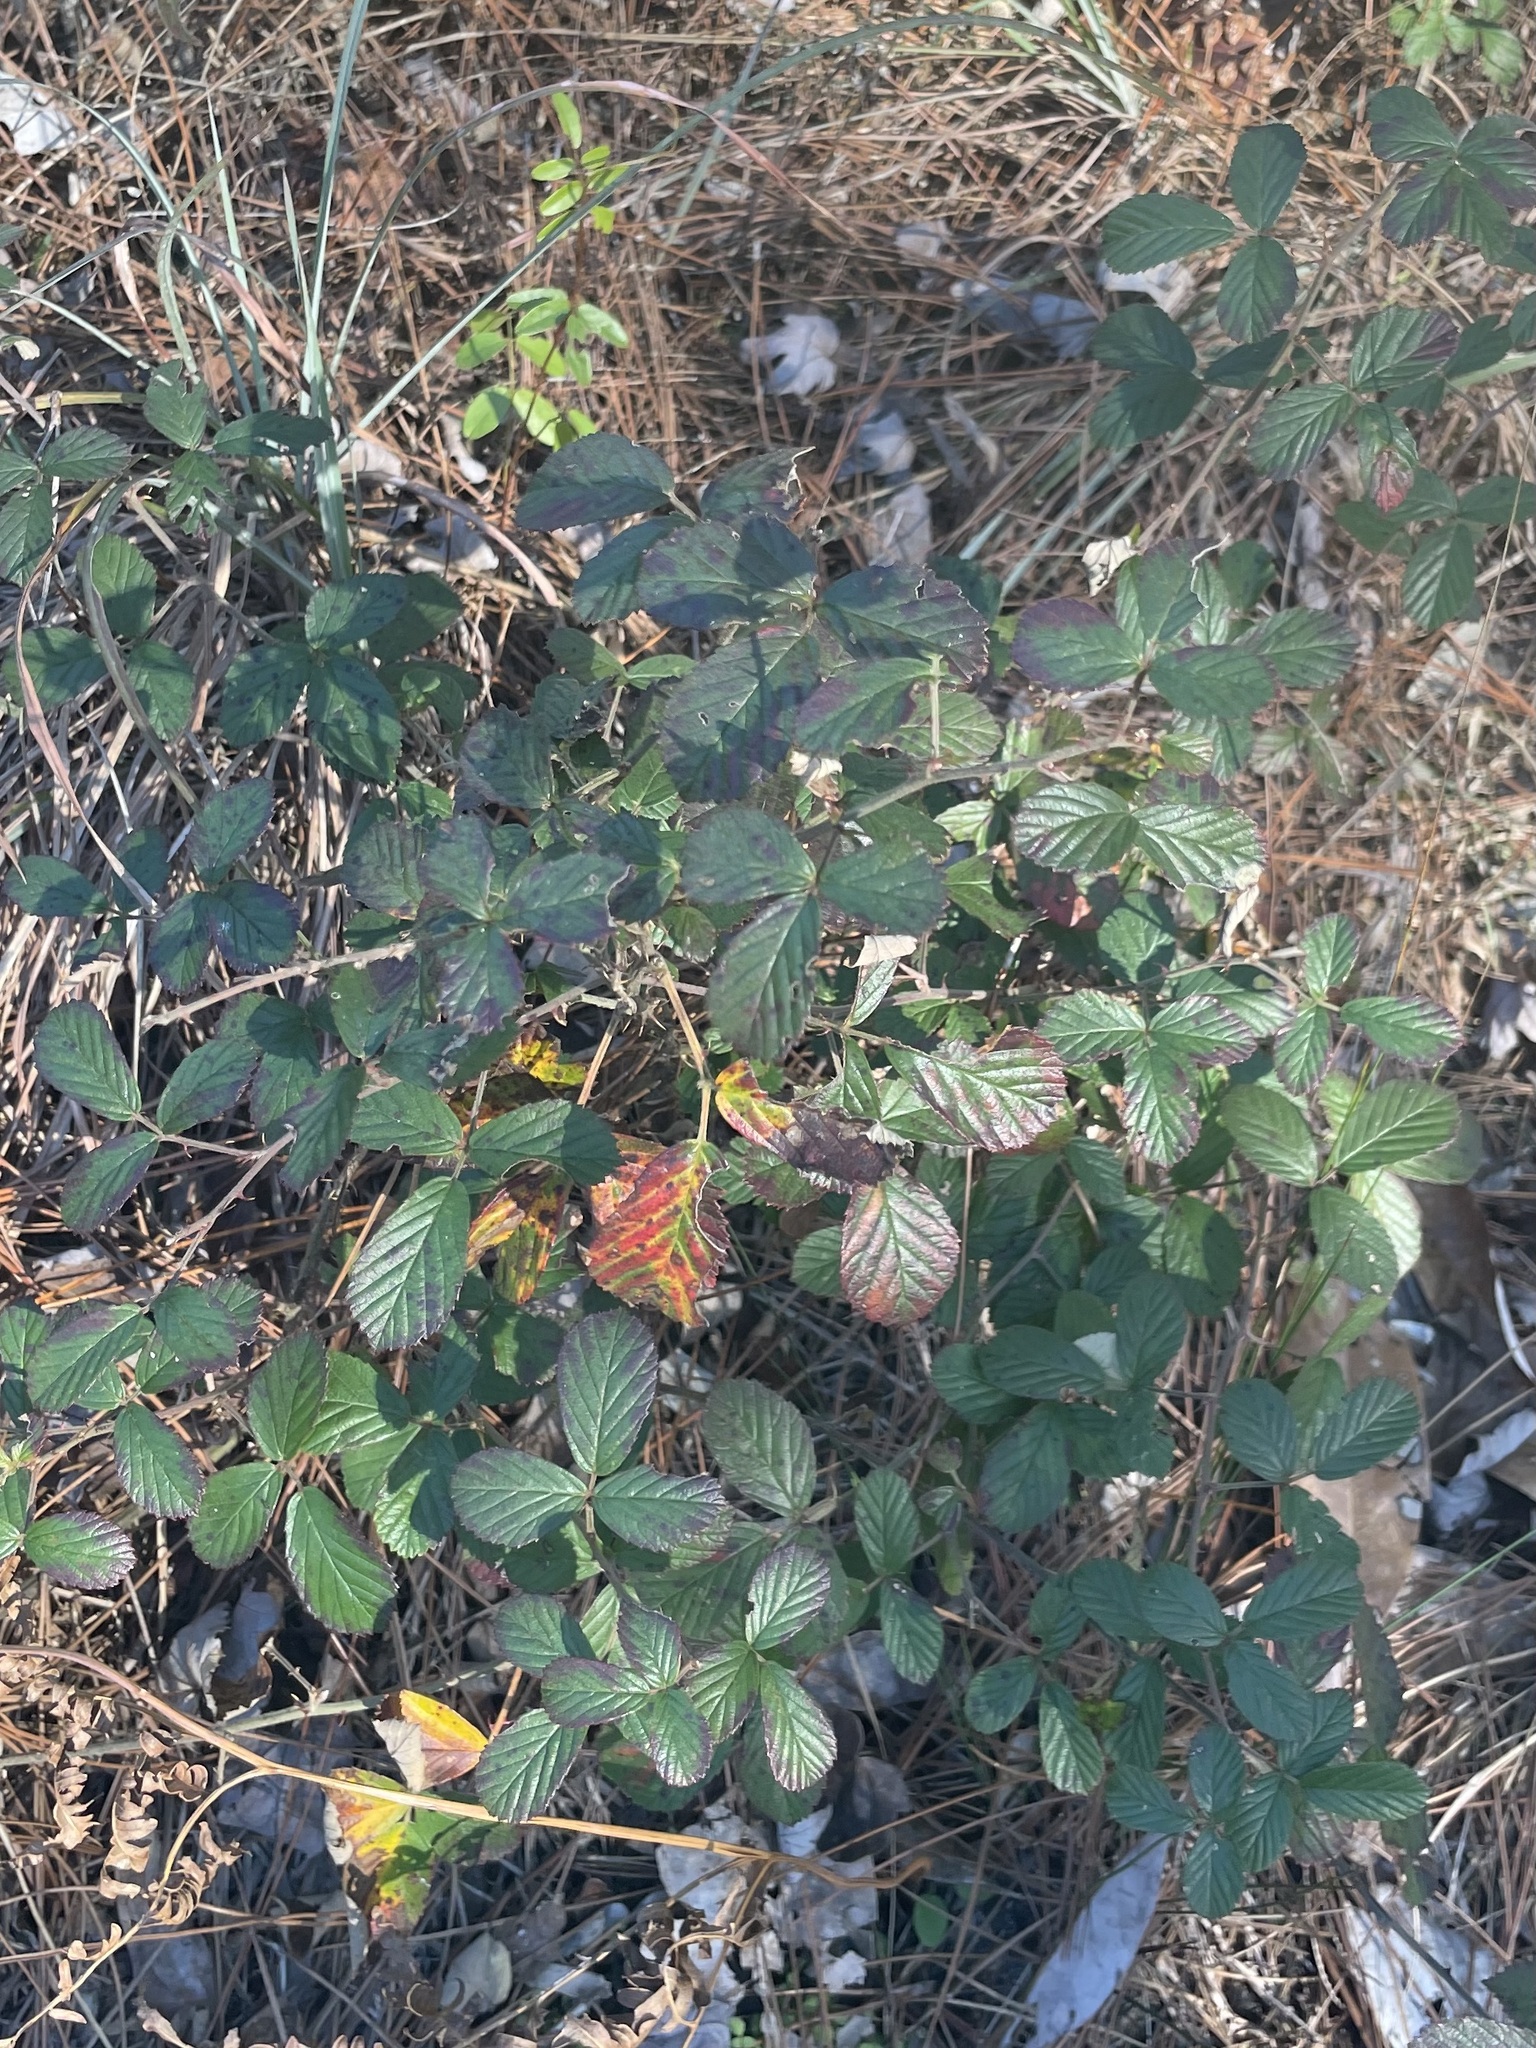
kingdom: Plantae
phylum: Tracheophyta
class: Magnoliopsida
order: Rosales
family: Rosaceae
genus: Rubus
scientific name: Rubus cuneifolius
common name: American bramble
